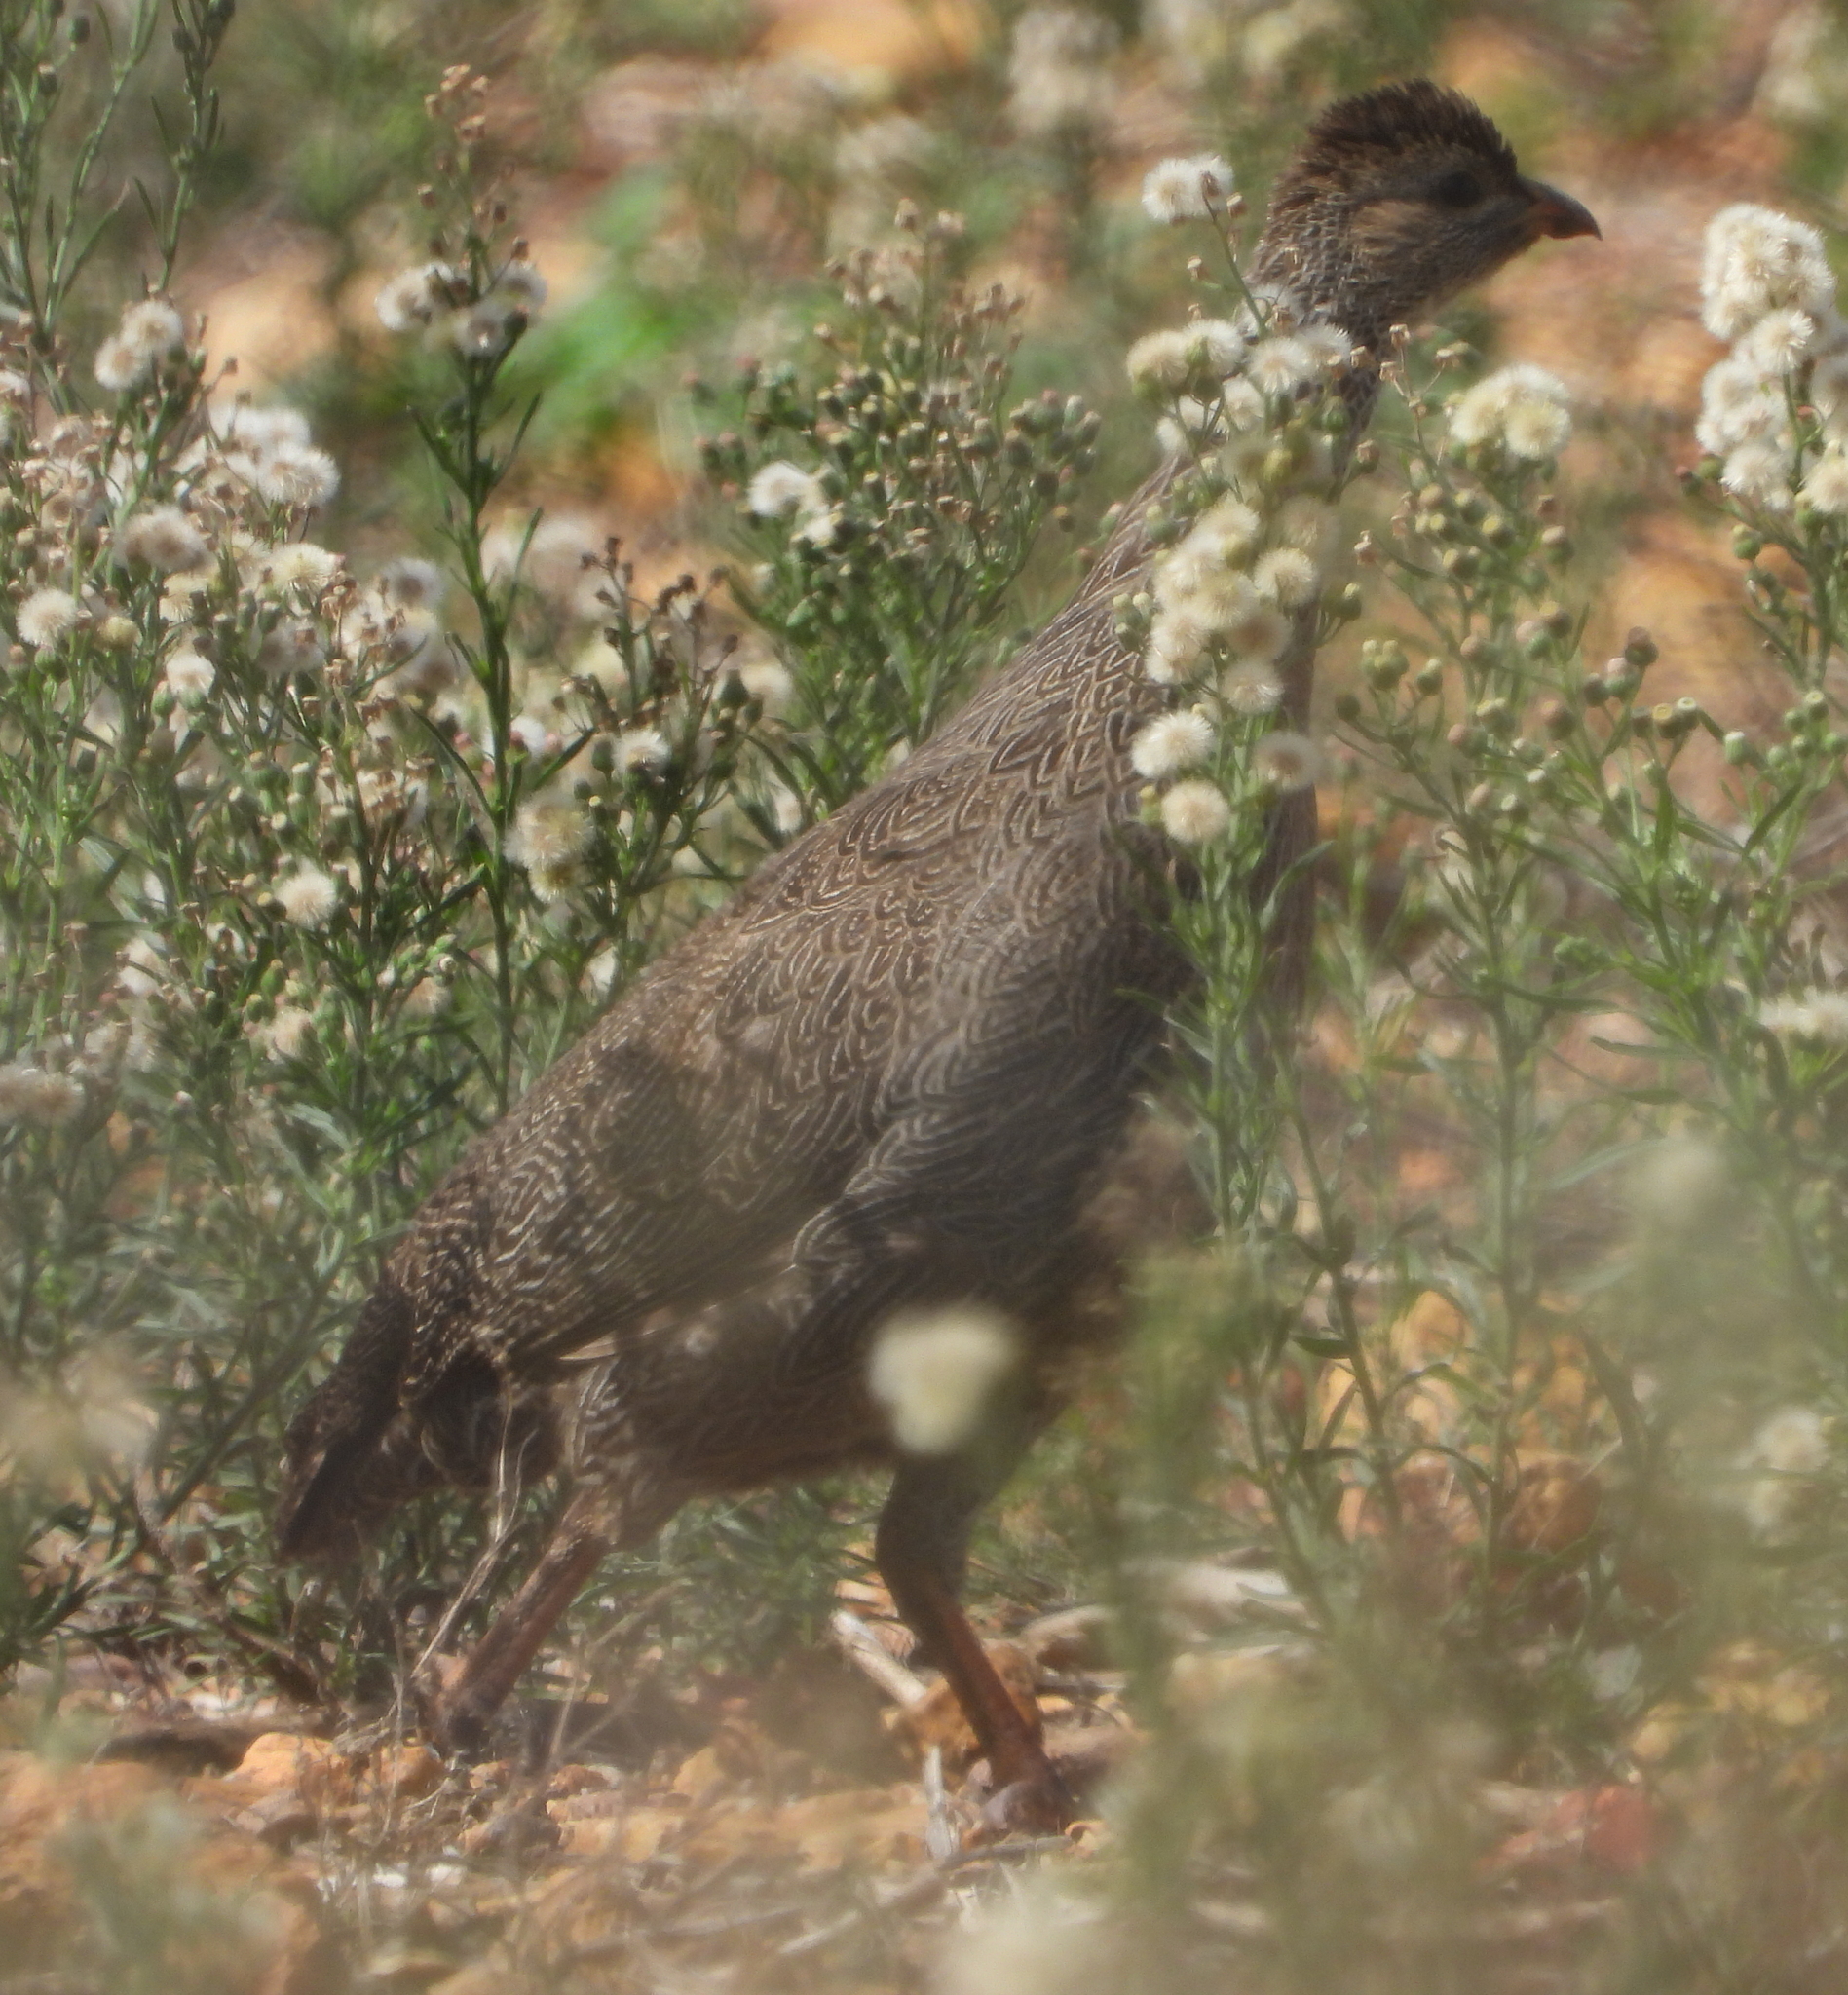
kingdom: Animalia
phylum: Chordata
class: Aves
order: Galliformes
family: Phasianidae
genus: Pternistis
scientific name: Pternistis capensis
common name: Cape spurfowl
